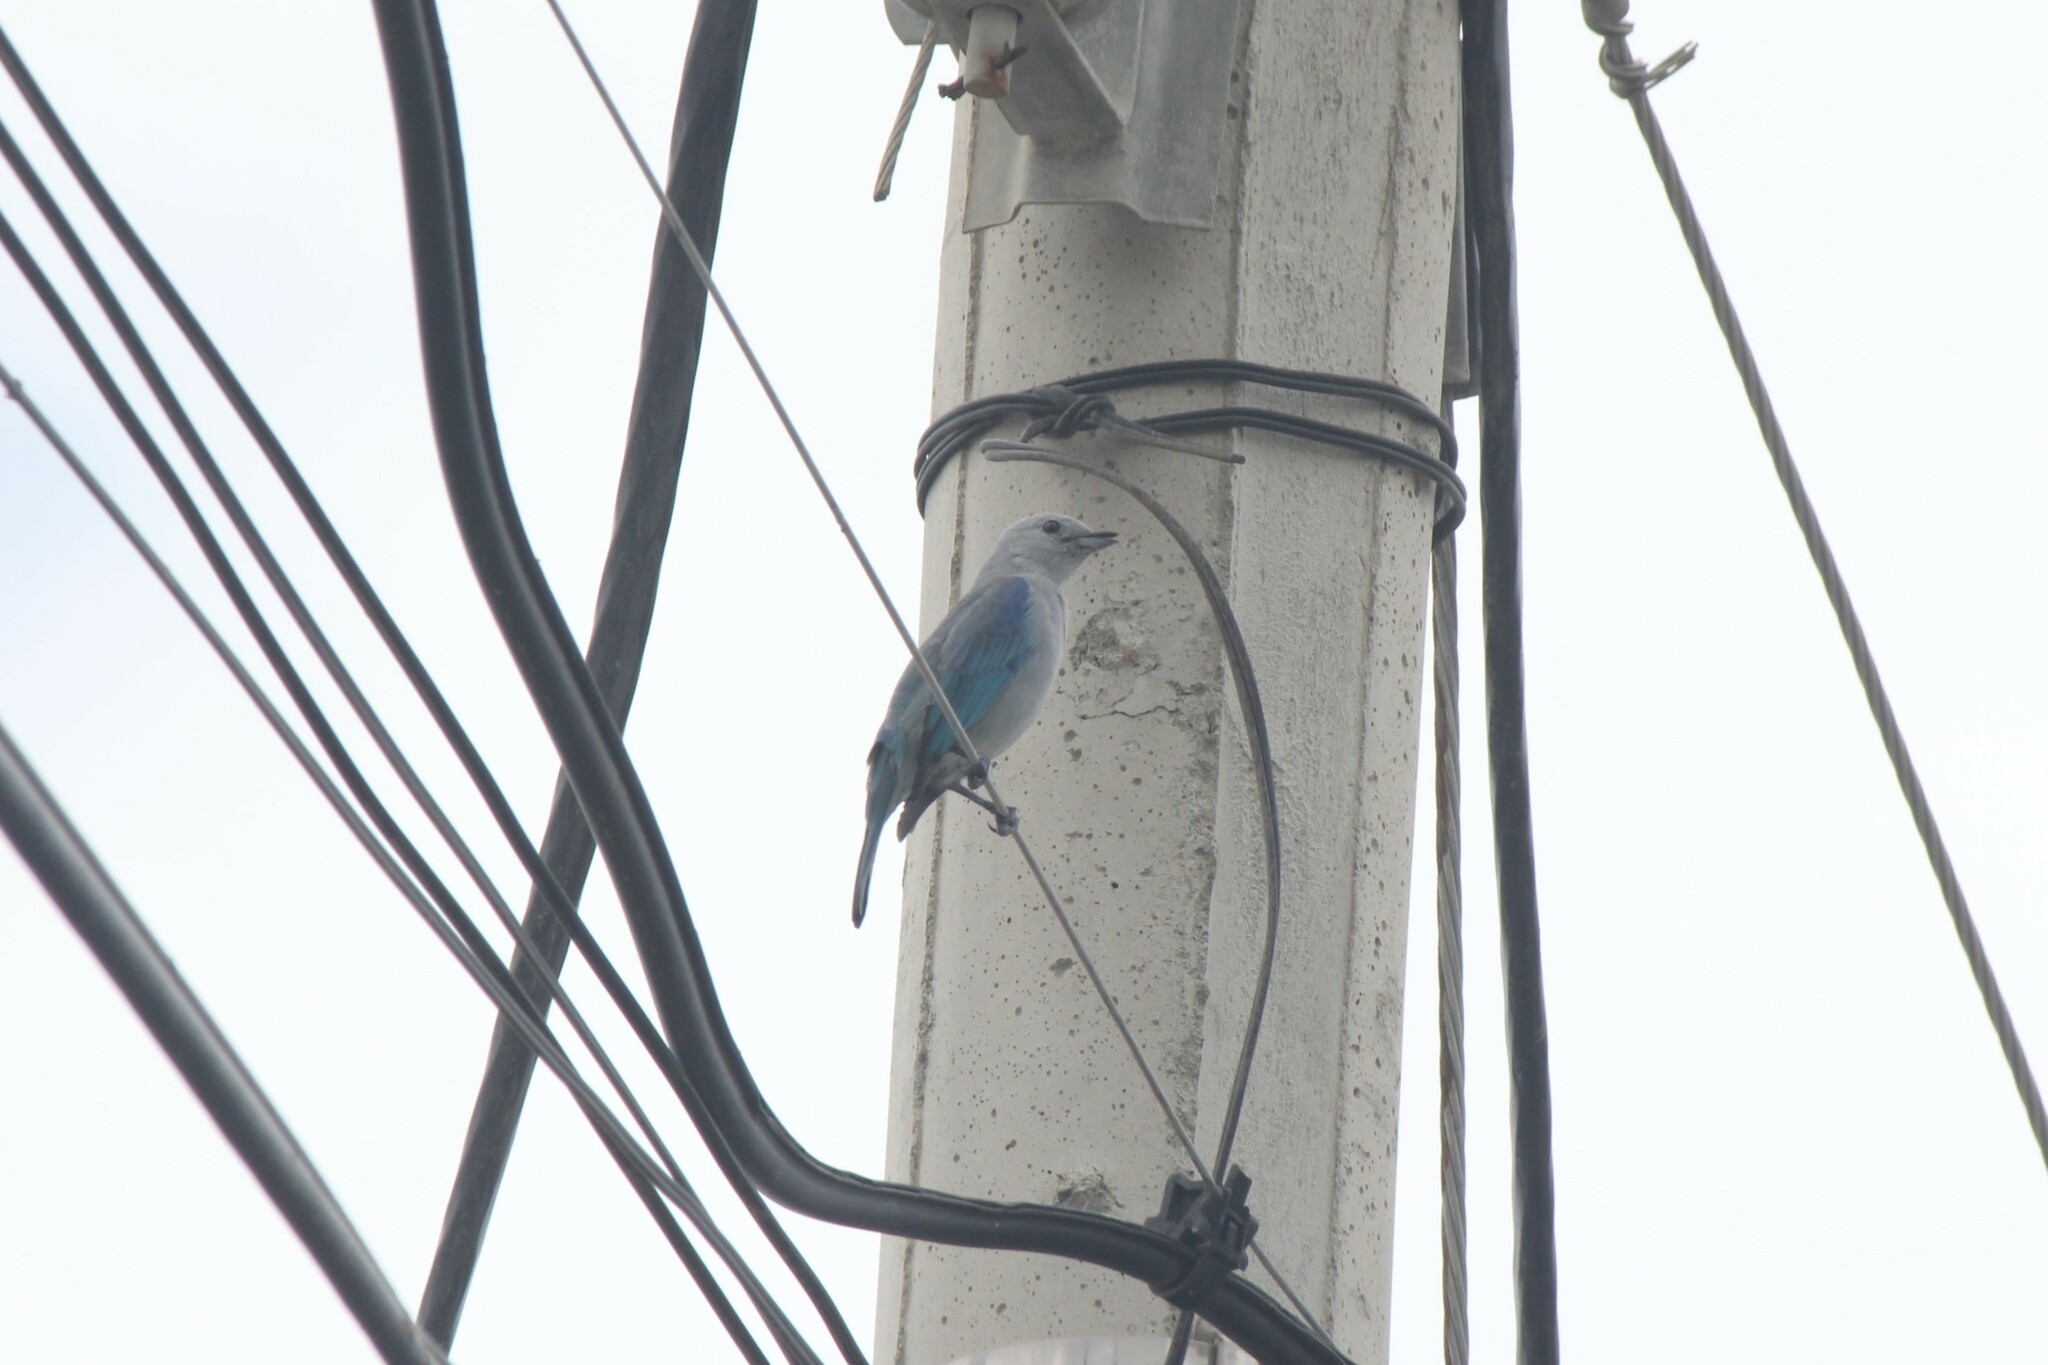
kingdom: Animalia
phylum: Chordata
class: Aves
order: Passeriformes
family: Thraupidae
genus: Thraupis
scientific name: Thraupis episcopus
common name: Blue-grey tanager
